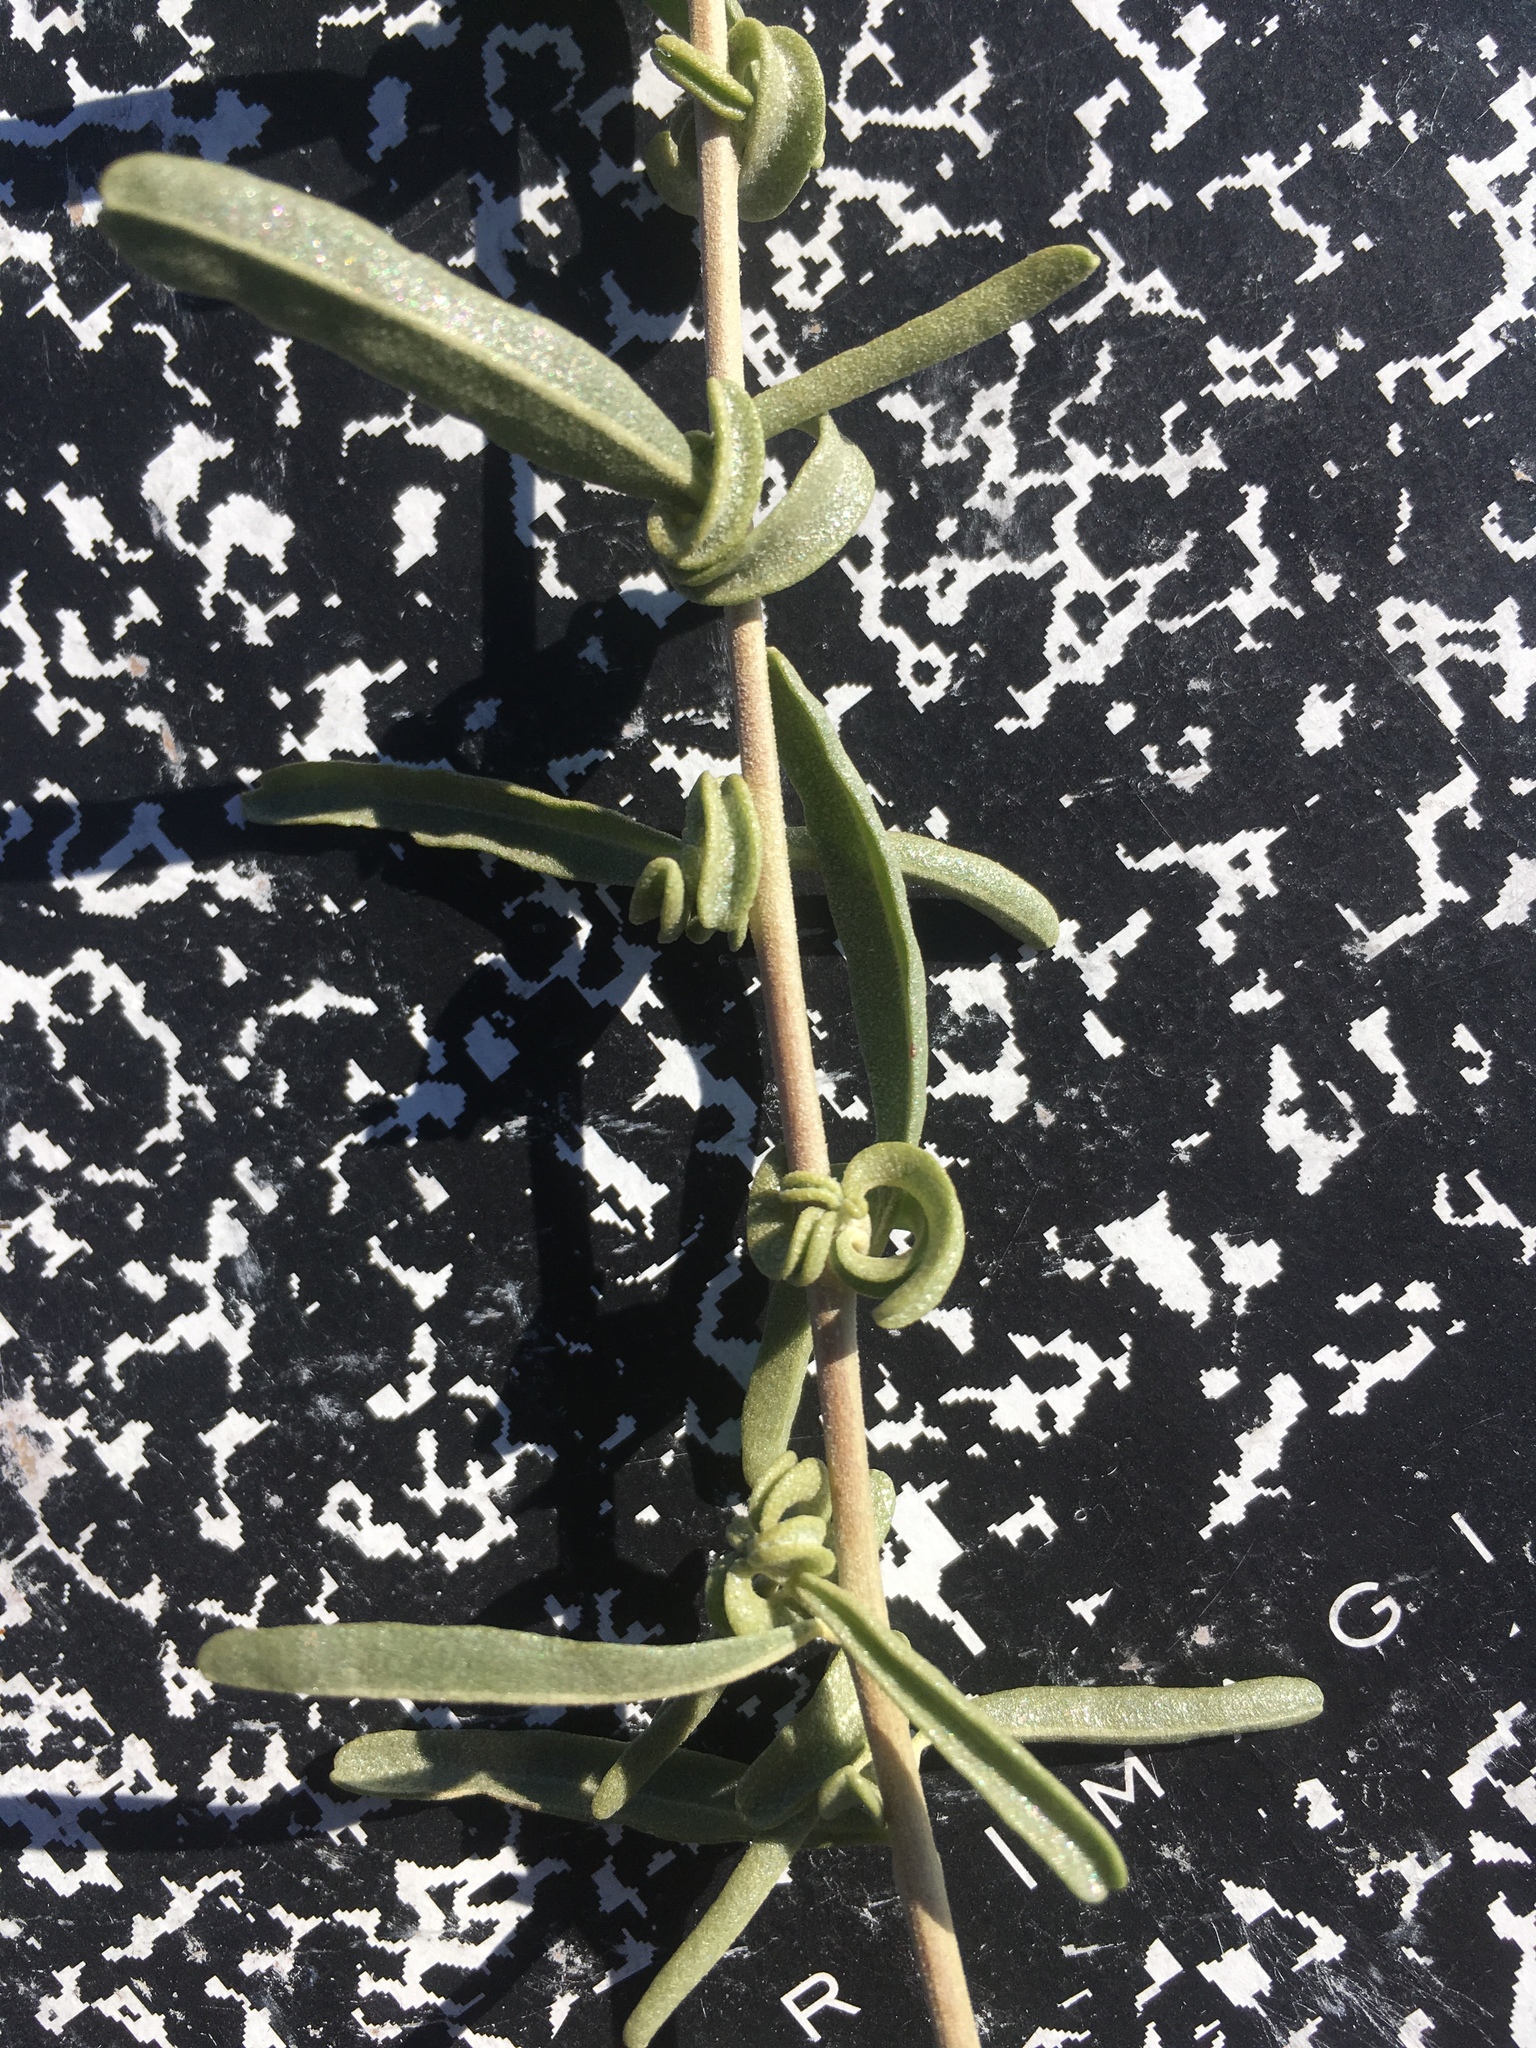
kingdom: Plantae
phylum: Tracheophyta
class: Magnoliopsida
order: Caryophyllales
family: Amaranthaceae
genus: Atriplex
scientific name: Atriplex canescens
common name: Four-wing saltbush
